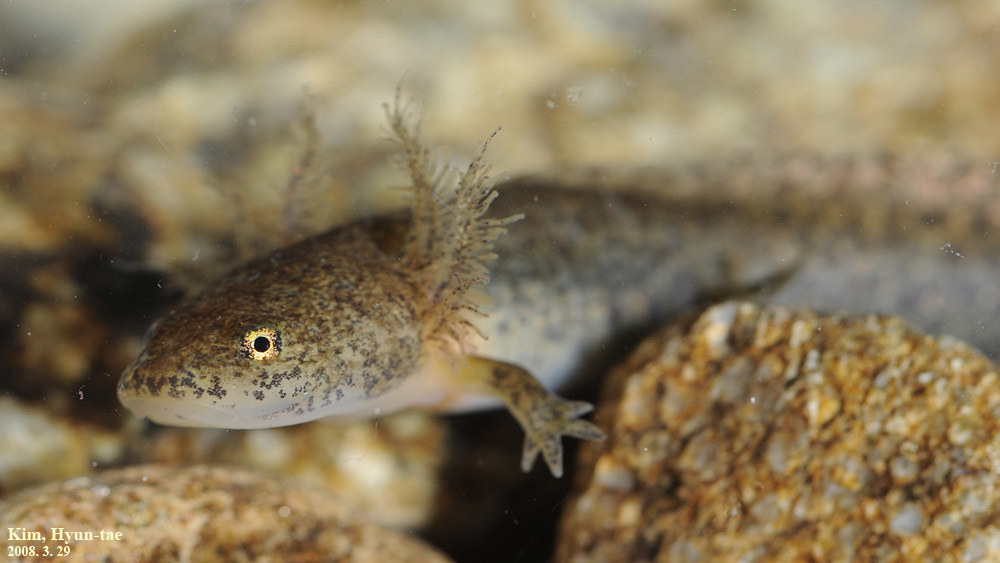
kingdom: Animalia
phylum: Chordata
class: Amphibia
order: Caudata
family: Hynobiidae
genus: Hynobius
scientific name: Hynobius leechii
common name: Gensan salamander
